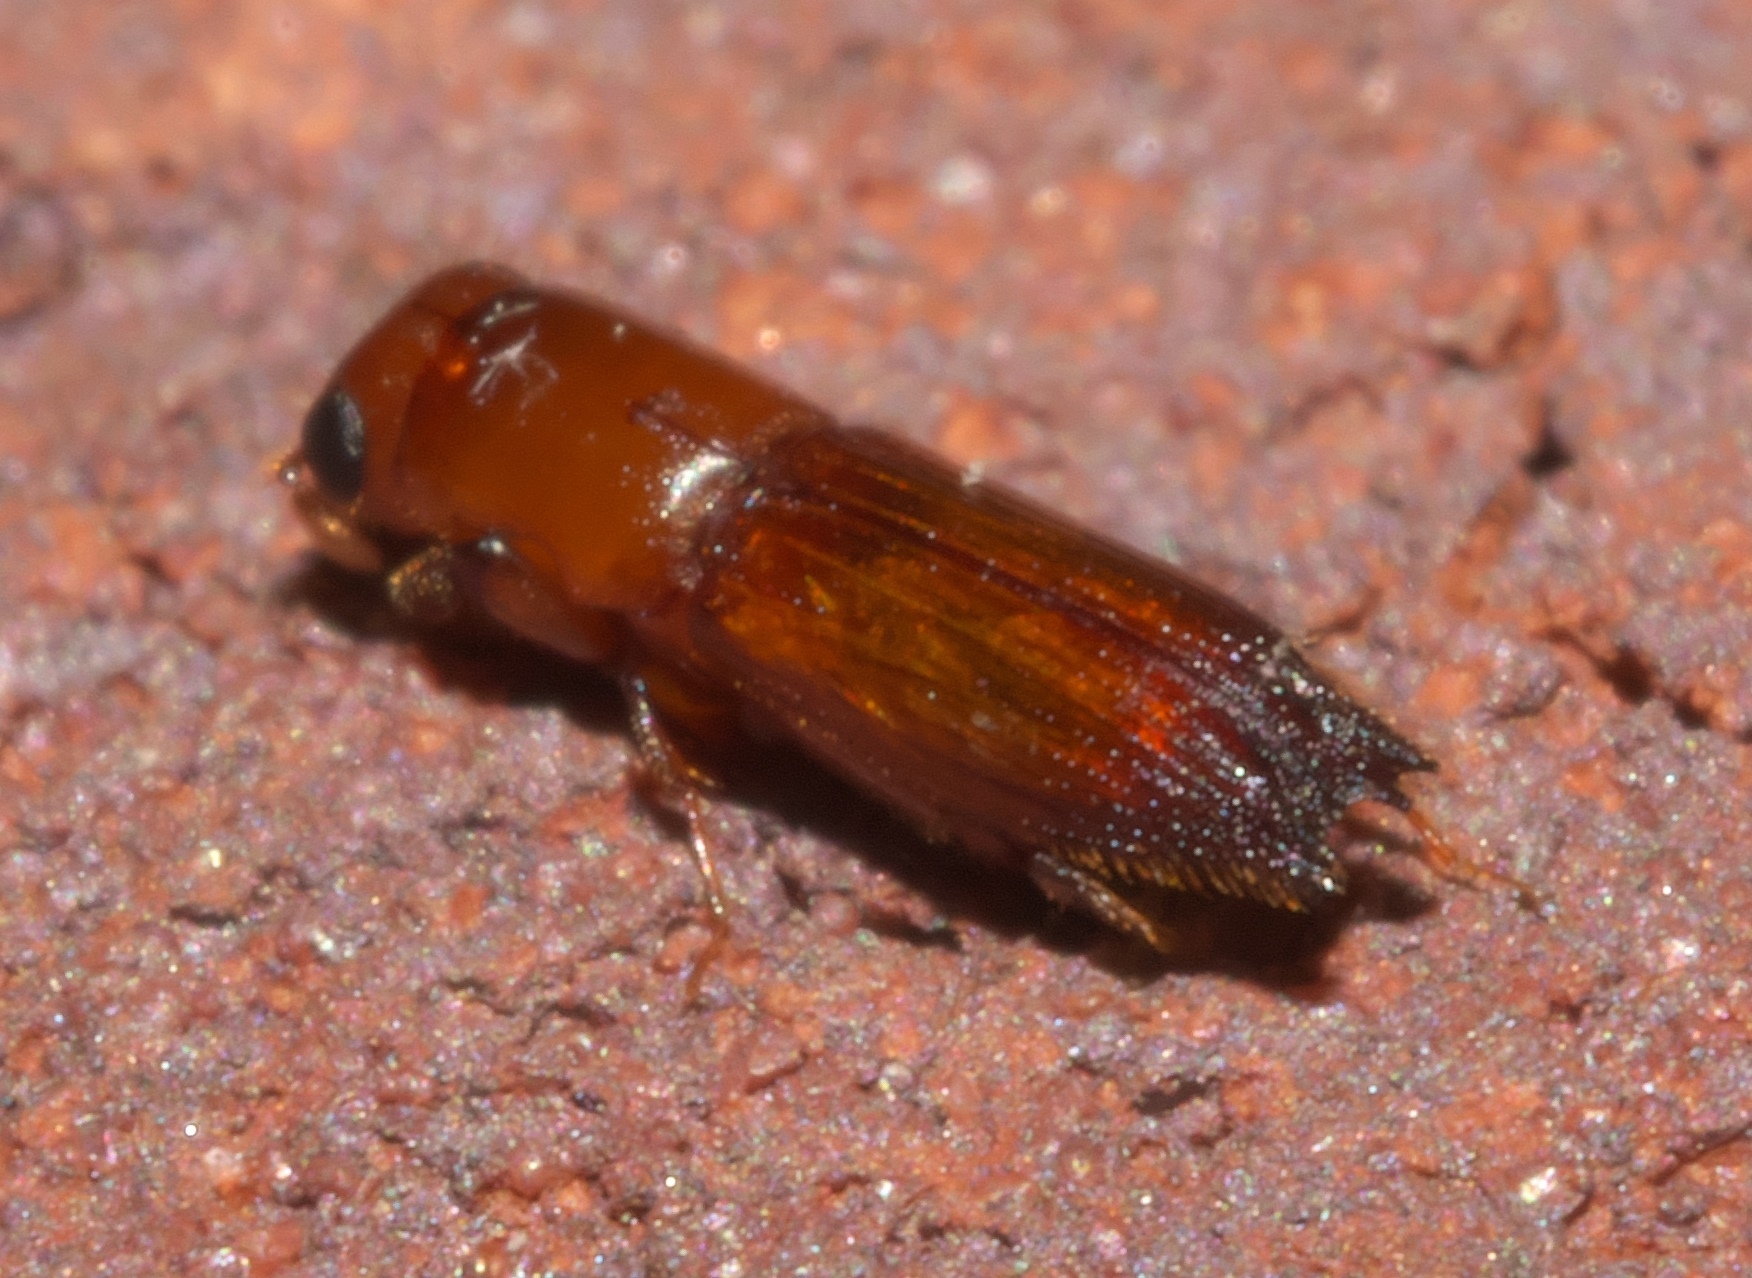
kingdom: Animalia
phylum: Arthropoda
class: Insecta
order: Coleoptera
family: Curculionidae
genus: Euplatypus
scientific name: Euplatypus compositus
